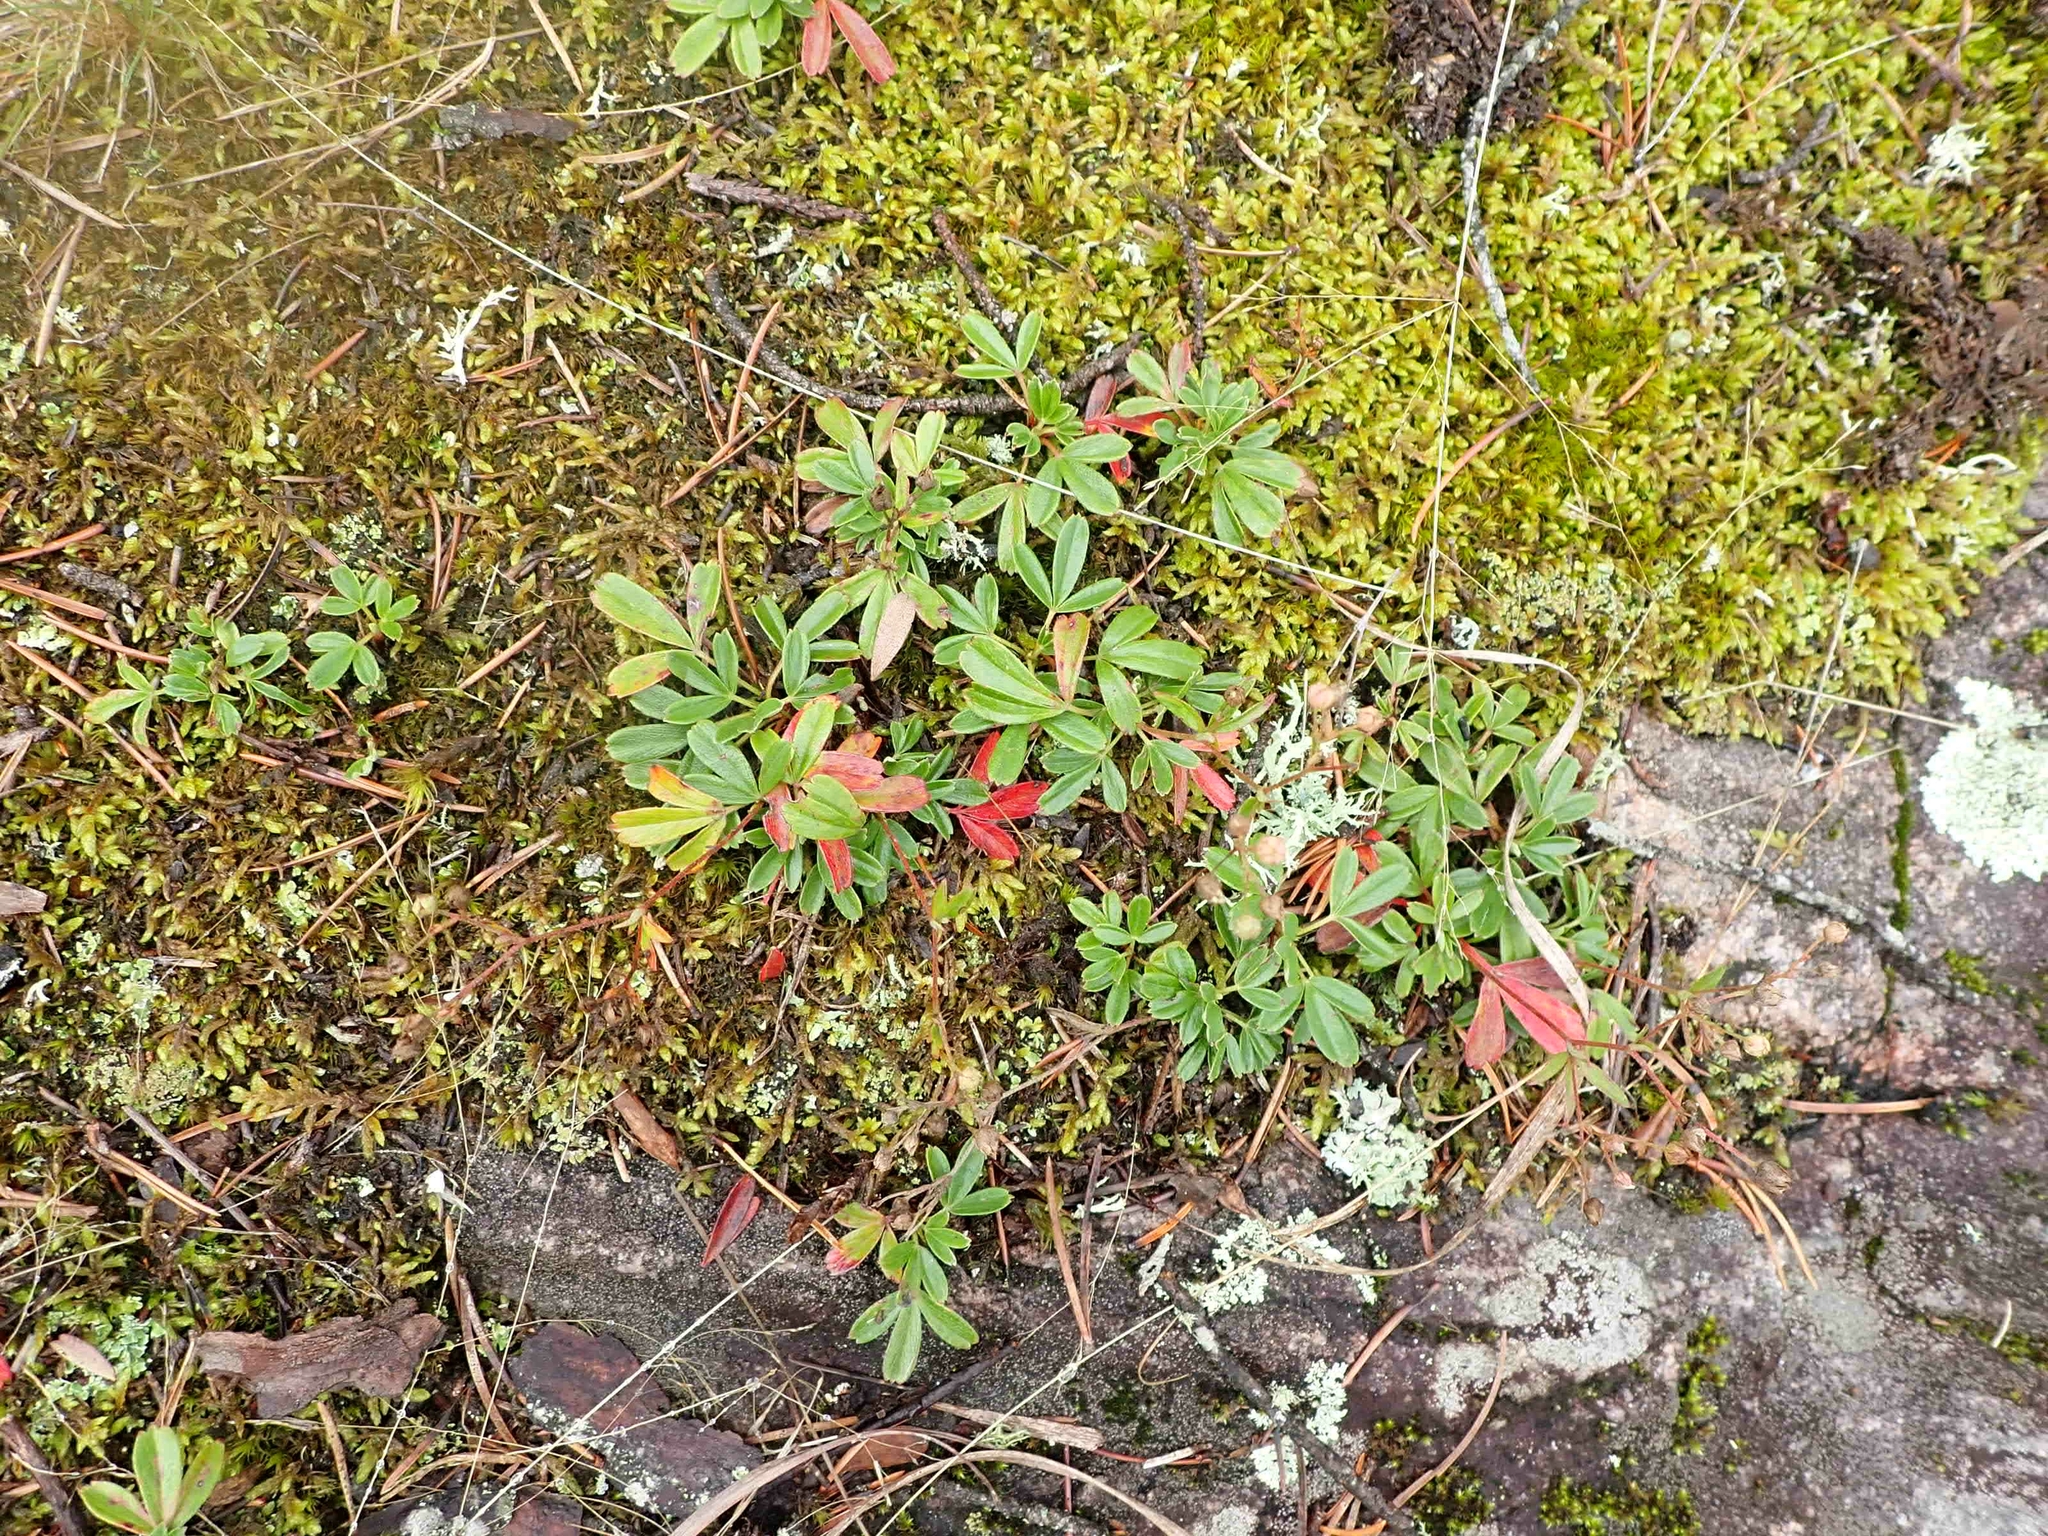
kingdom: Plantae
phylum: Tracheophyta
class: Magnoliopsida
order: Rosales
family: Rosaceae
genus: Sibbaldia
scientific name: Sibbaldia tridentata
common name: Three-toothed cinquefoil
